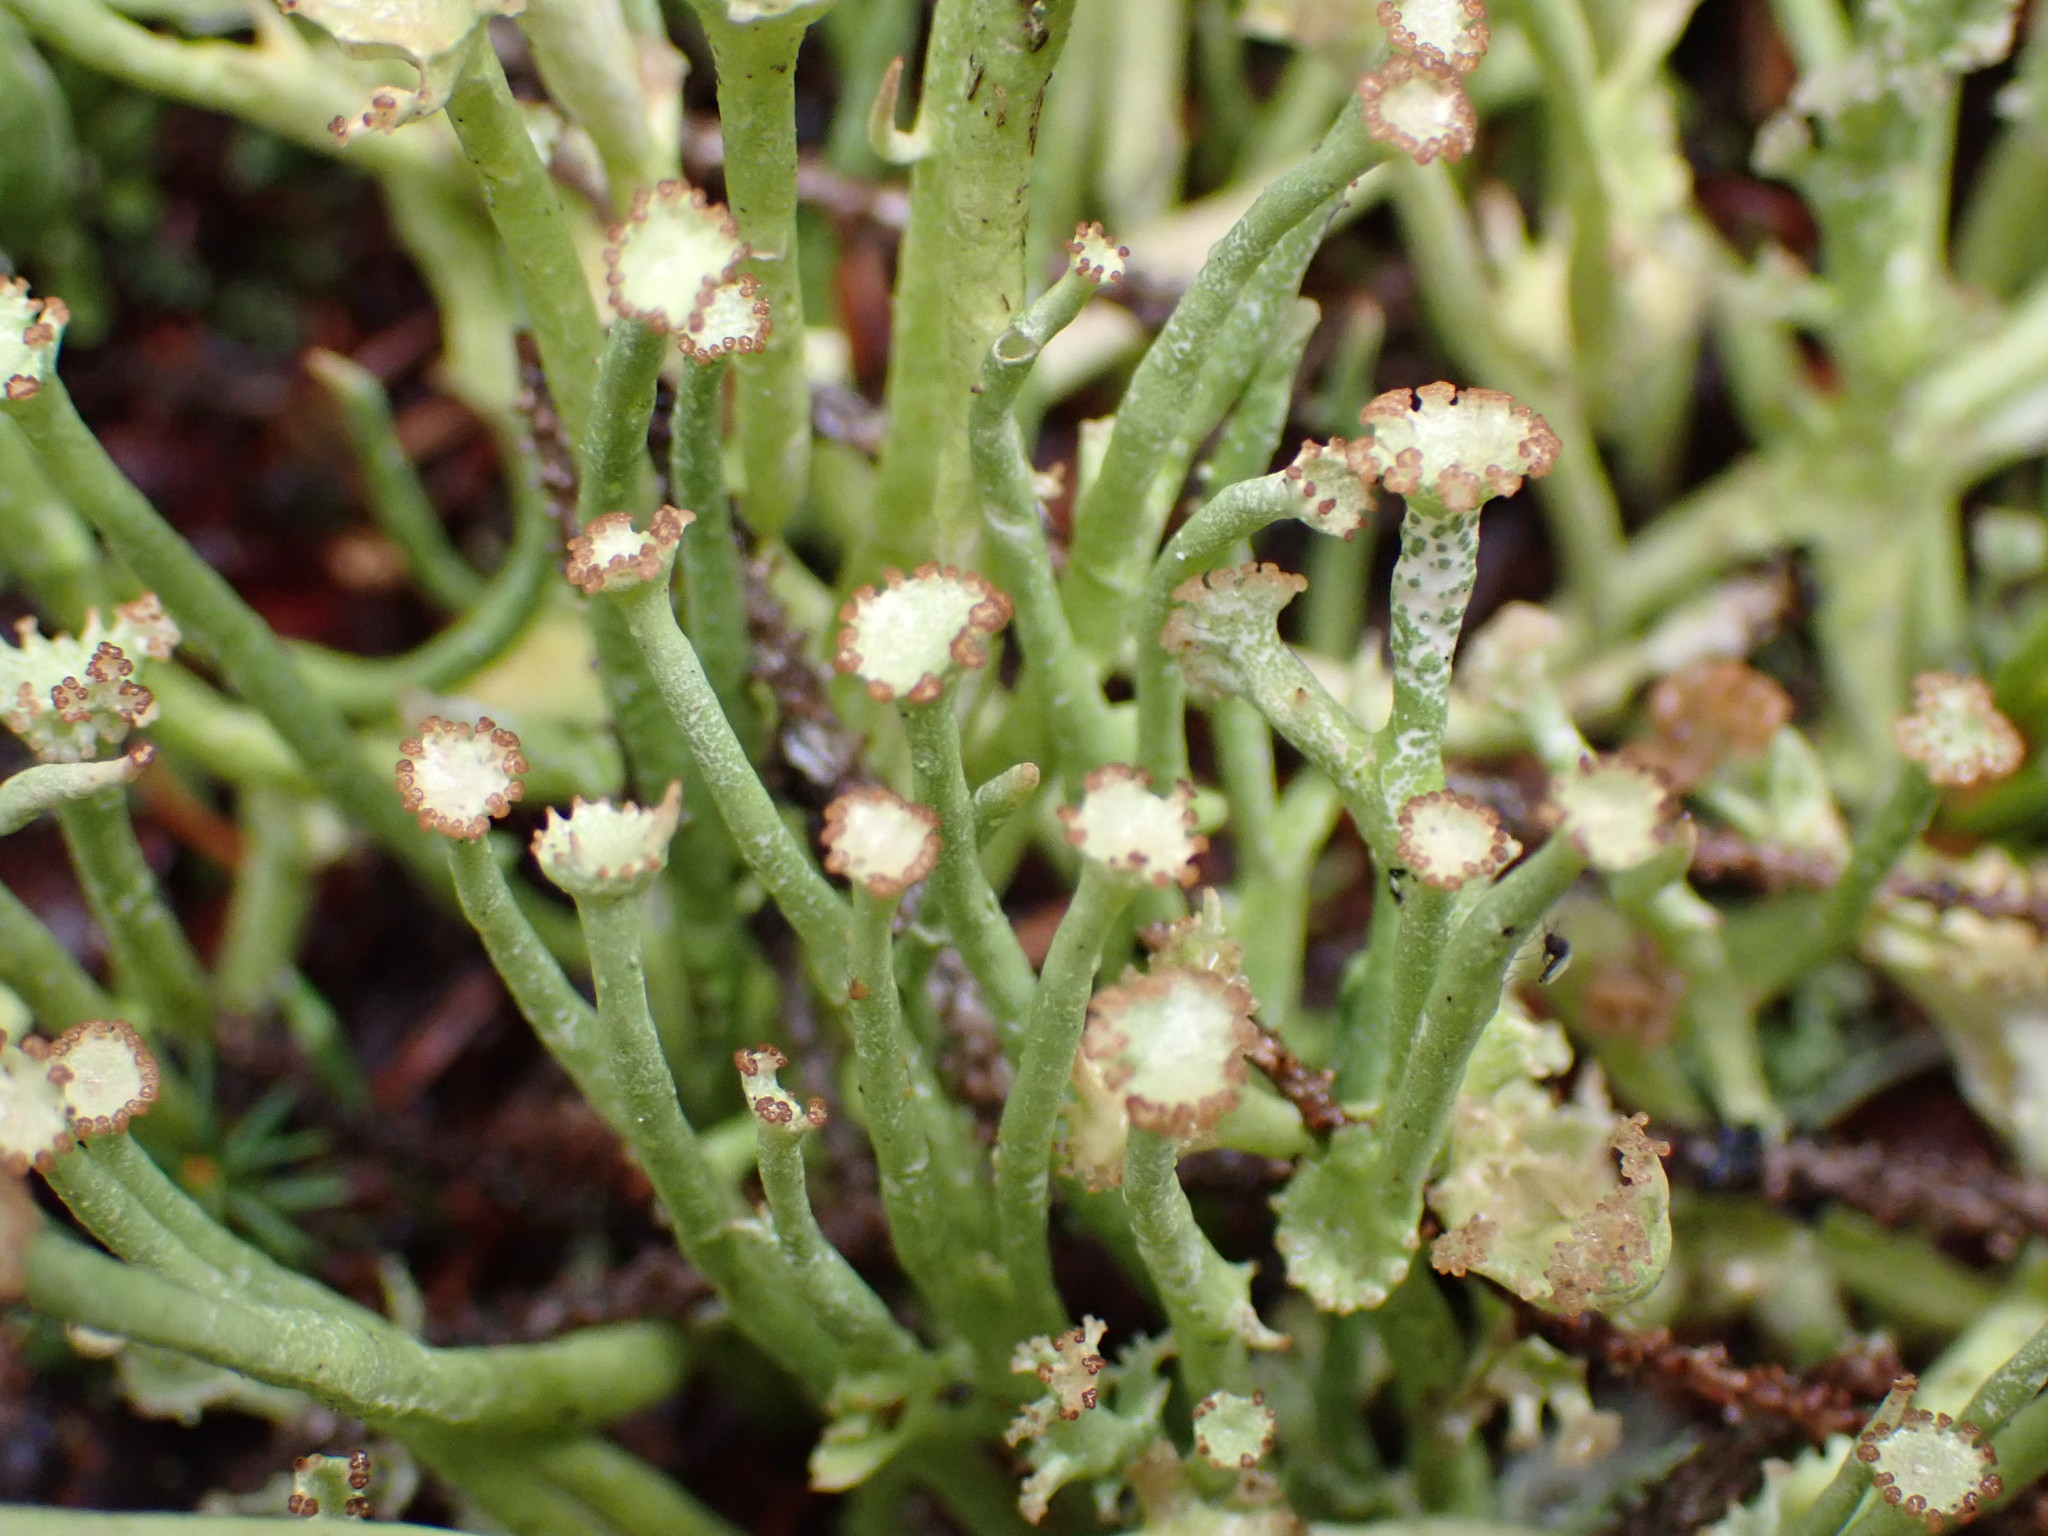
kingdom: Fungi
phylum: Ascomycota
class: Lecanoromycetes
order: Lecanorales
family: Cladoniaceae
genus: Cladonia
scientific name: Cladonia maxima
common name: Giant cladonia lichen
